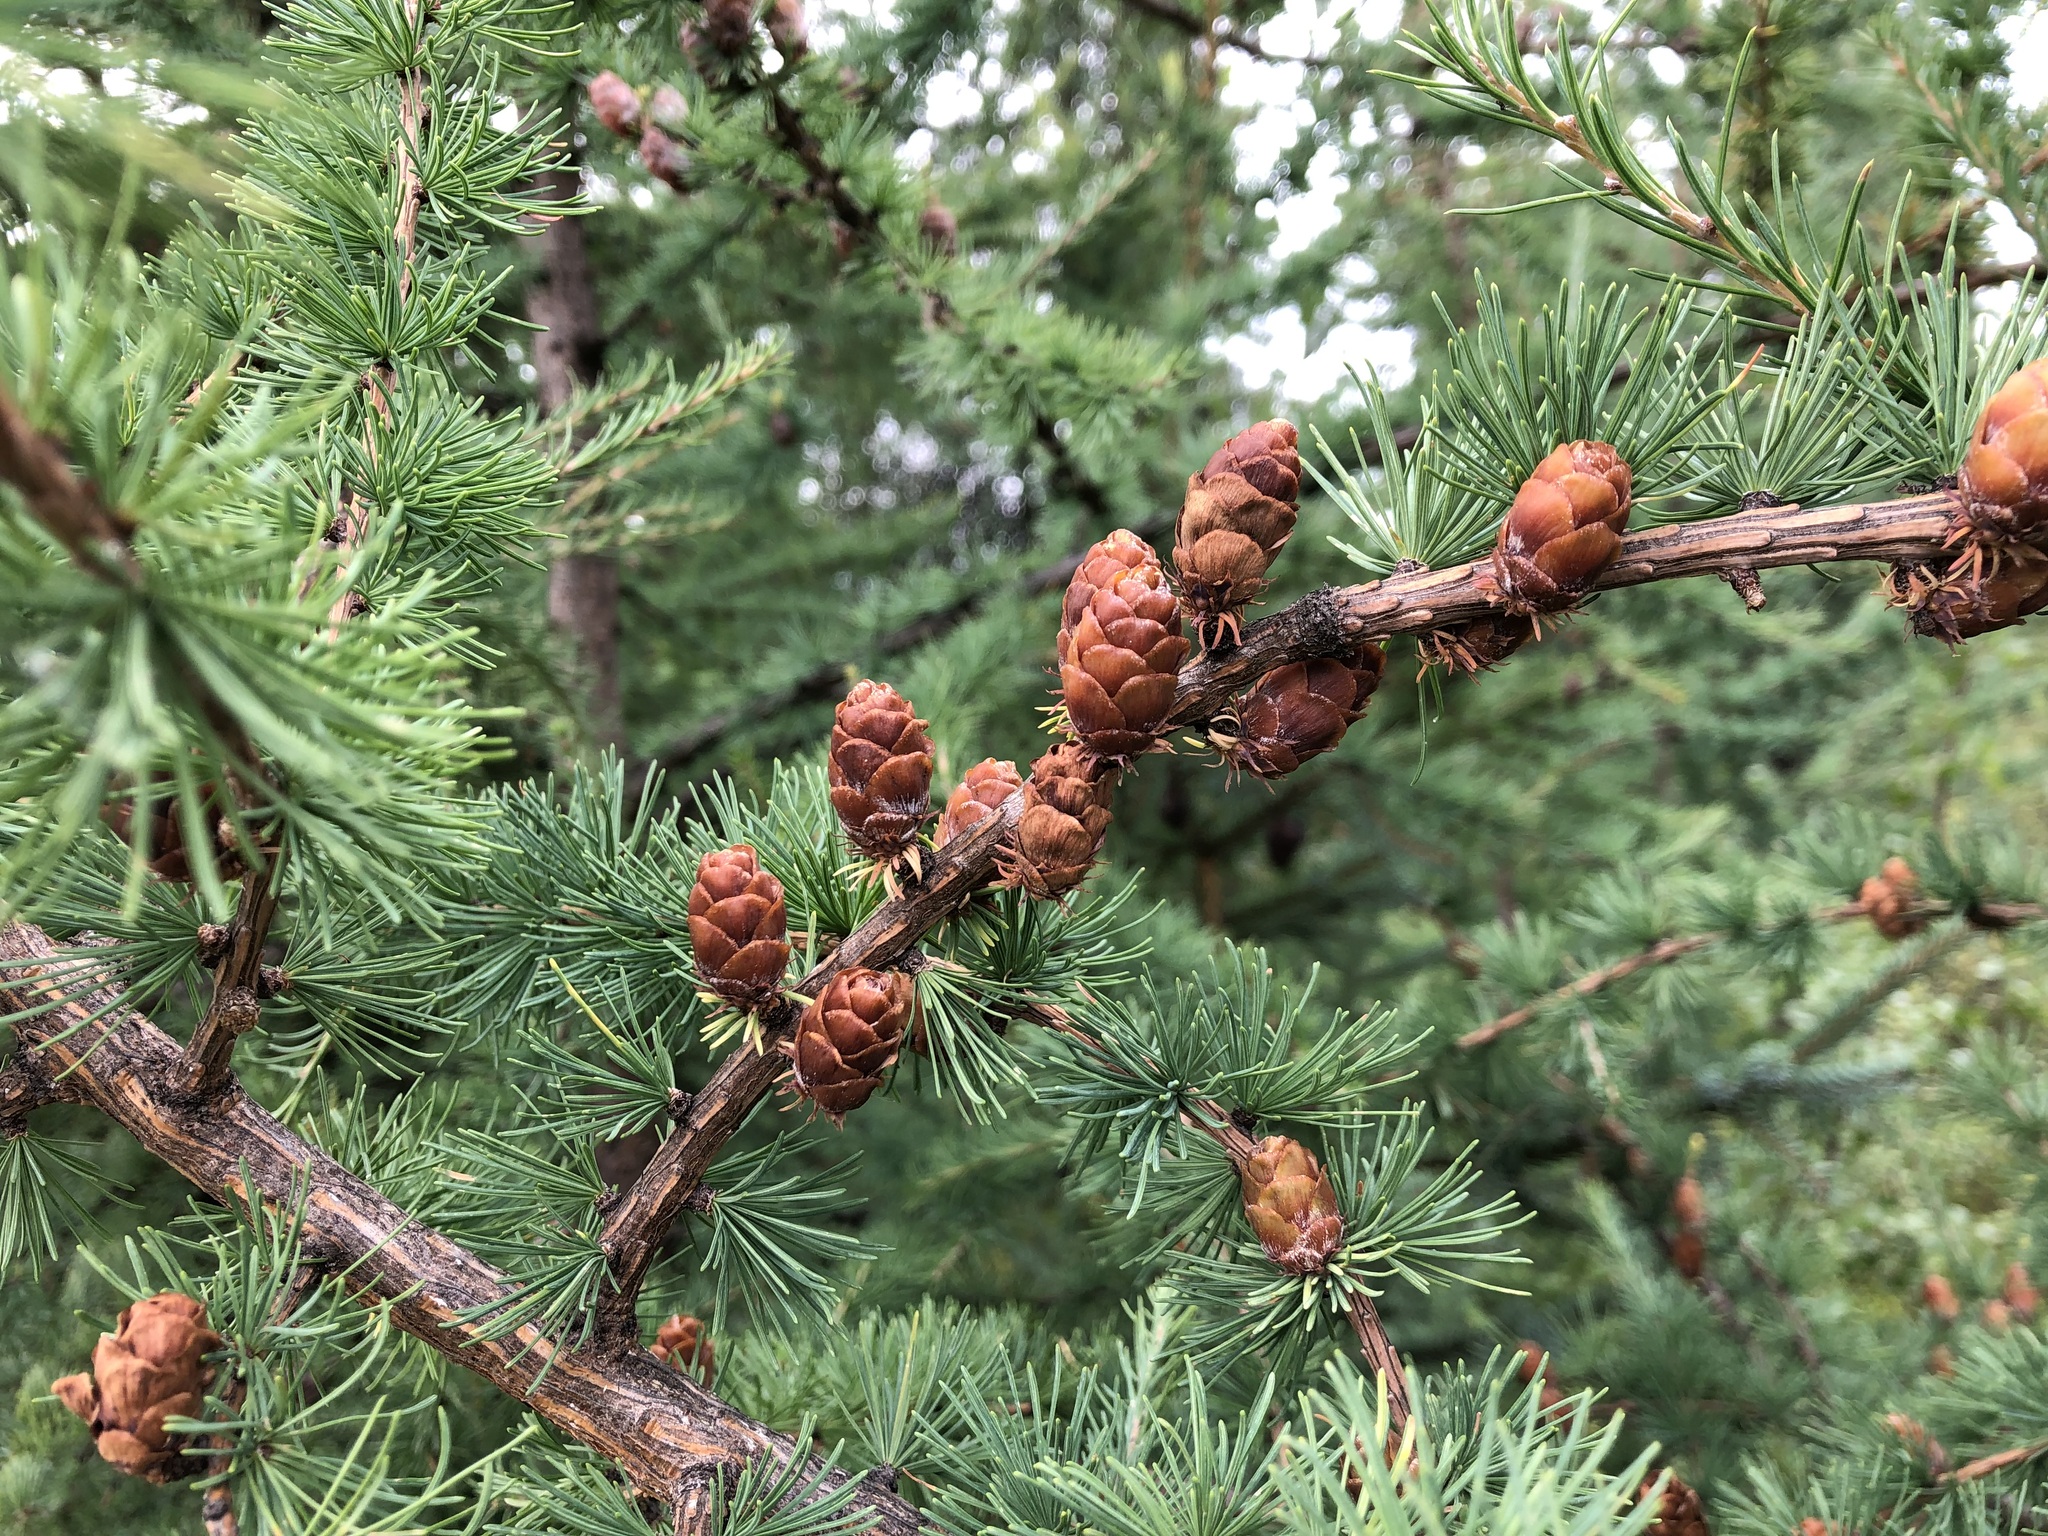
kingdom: Plantae
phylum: Tracheophyta
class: Pinopsida
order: Pinales
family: Pinaceae
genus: Larix
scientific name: Larix laricina
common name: American larch
